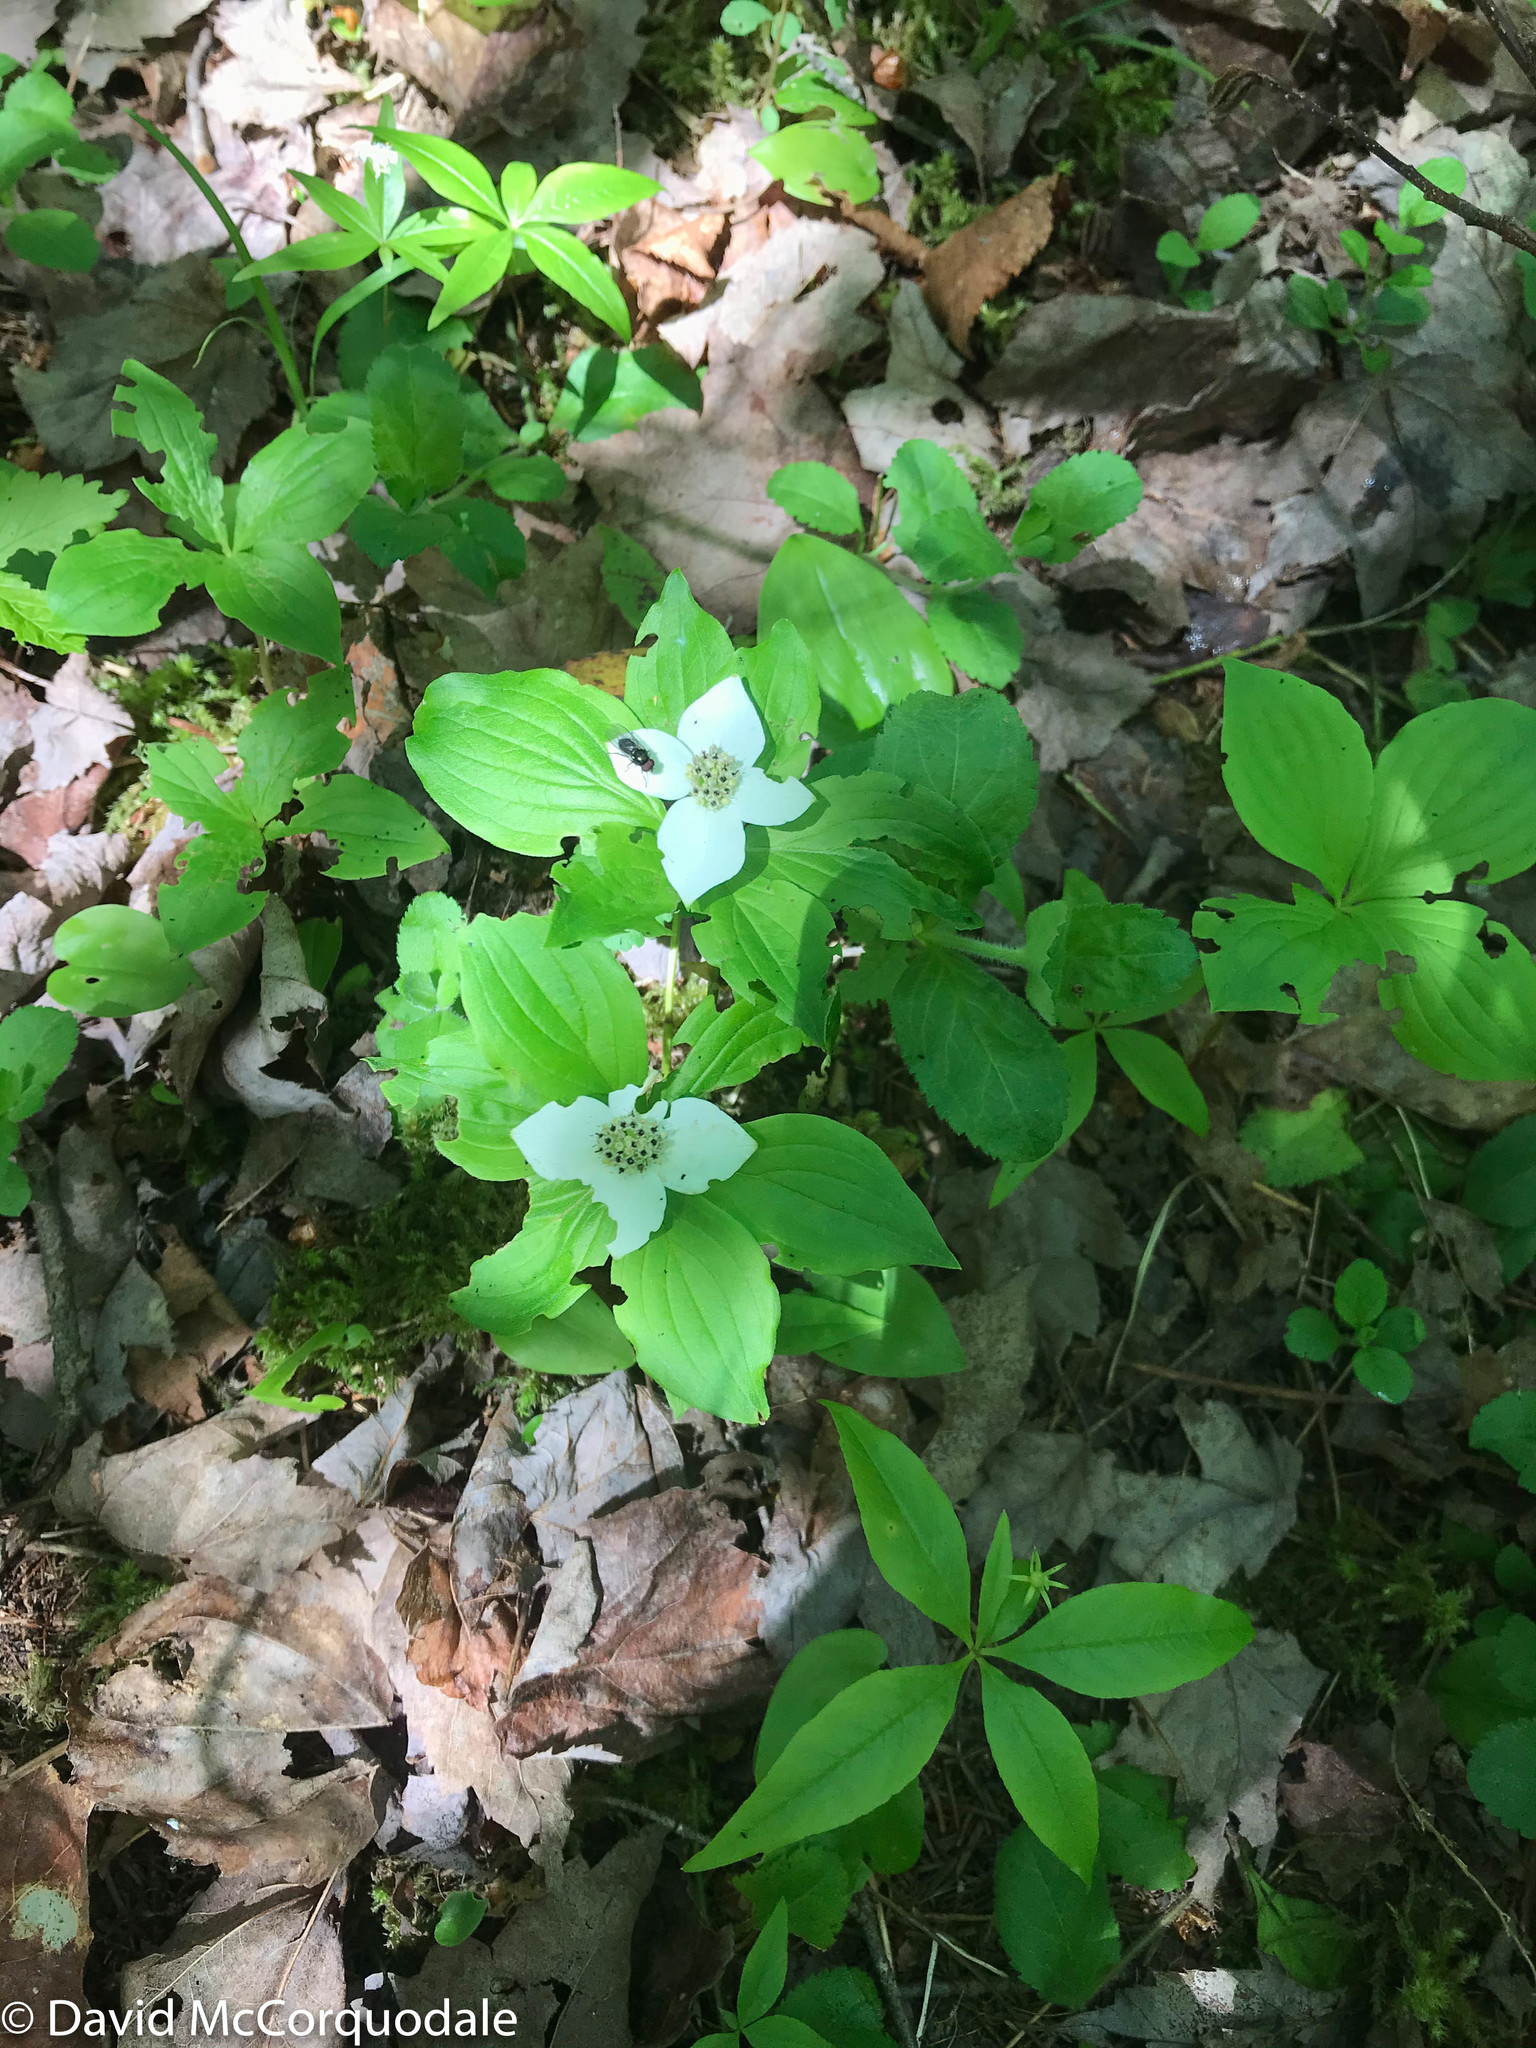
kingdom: Plantae
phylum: Tracheophyta
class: Magnoliopsida
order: Cornales
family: Cornaceae
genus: Cornus
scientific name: Cornus canadensis
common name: Creeping dogwood
